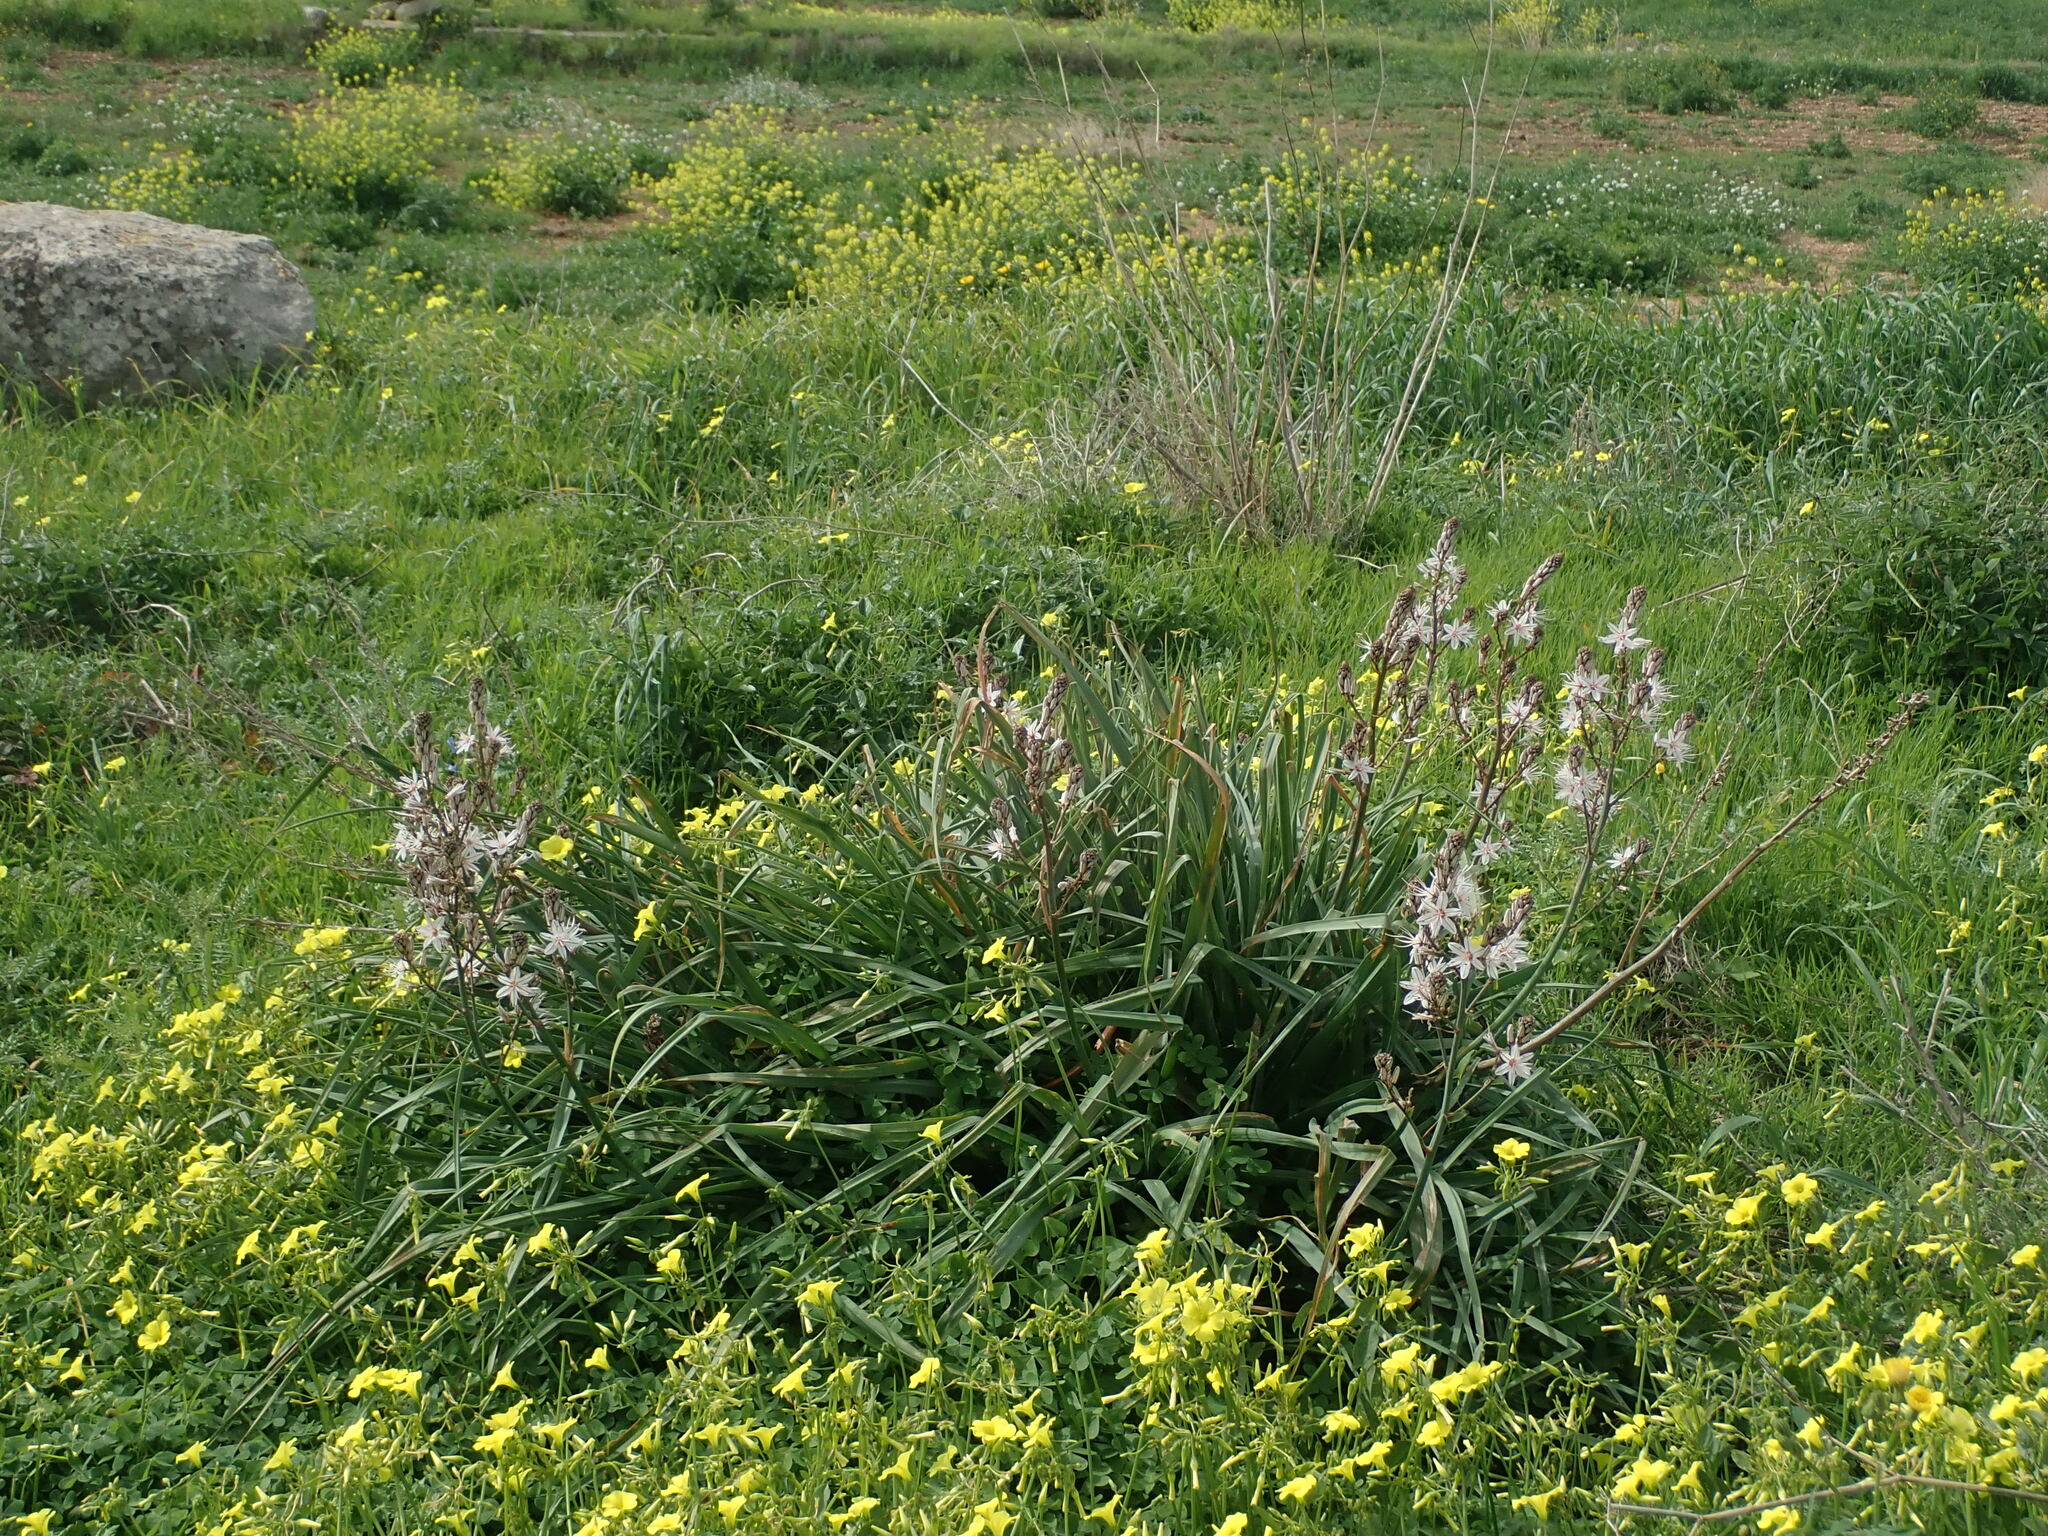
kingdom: Plantae
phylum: Tracheophyta
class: Liliopsida
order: Asparagales
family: Asphodelaceae
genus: Asphodelus
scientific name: Asphodelus ramosus
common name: Silverrod
